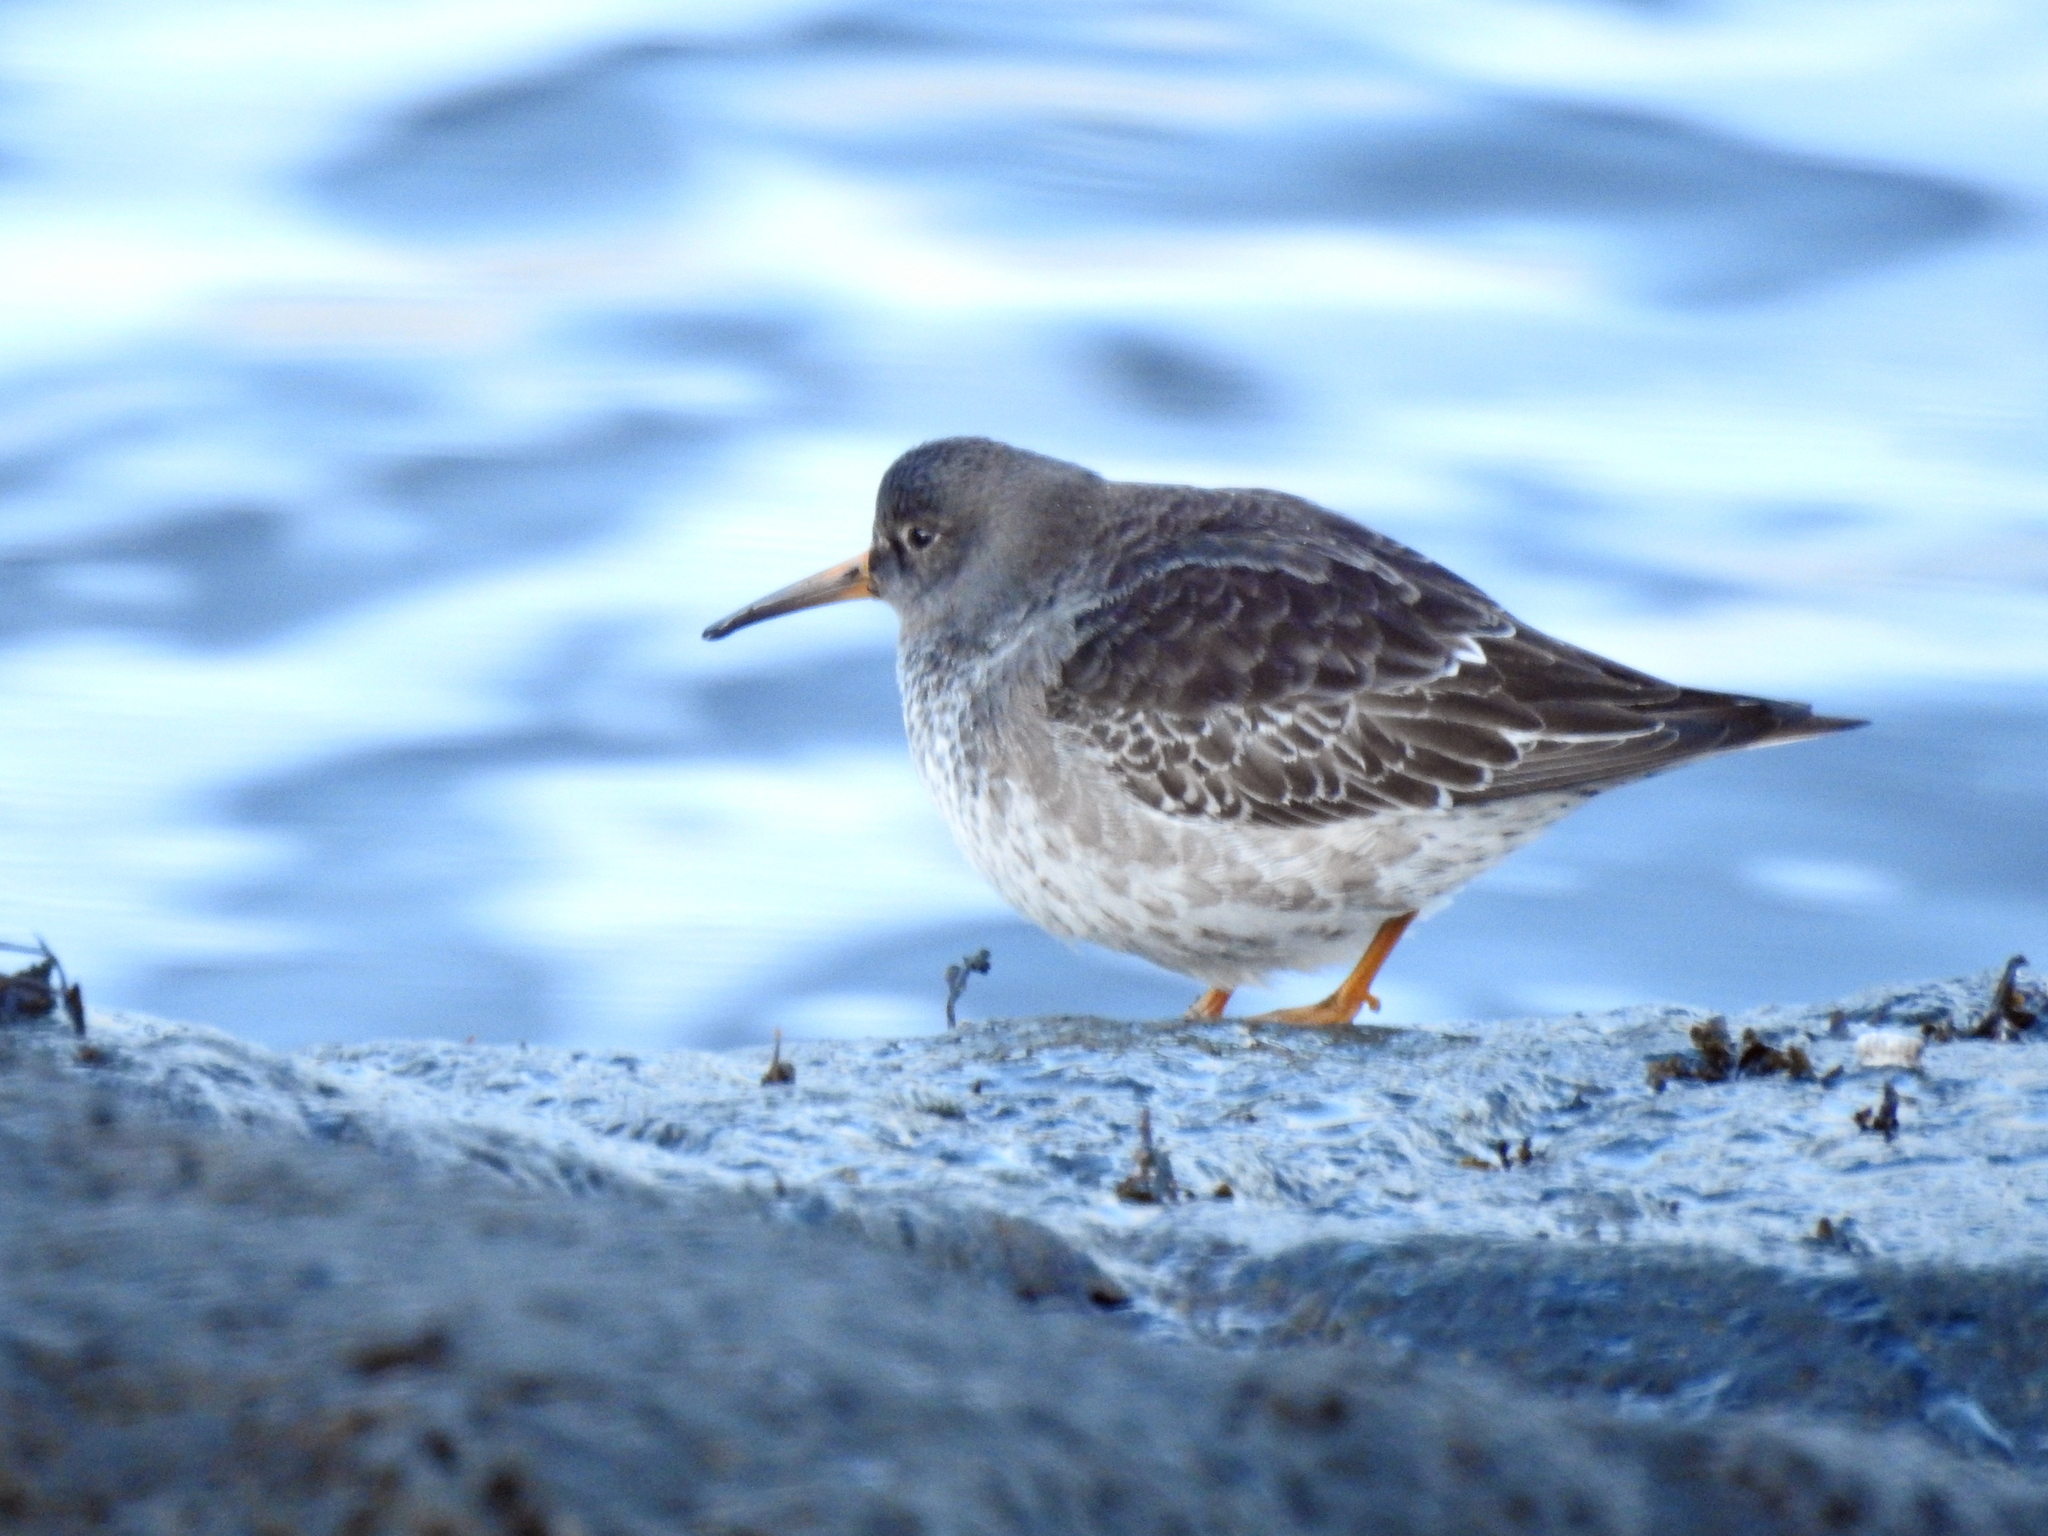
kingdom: Animalia
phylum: Chordata
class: Aves
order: Charadriiformes
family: Scolopacidae
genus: Calidris
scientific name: Calidris maritima
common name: Purple sandpiper
